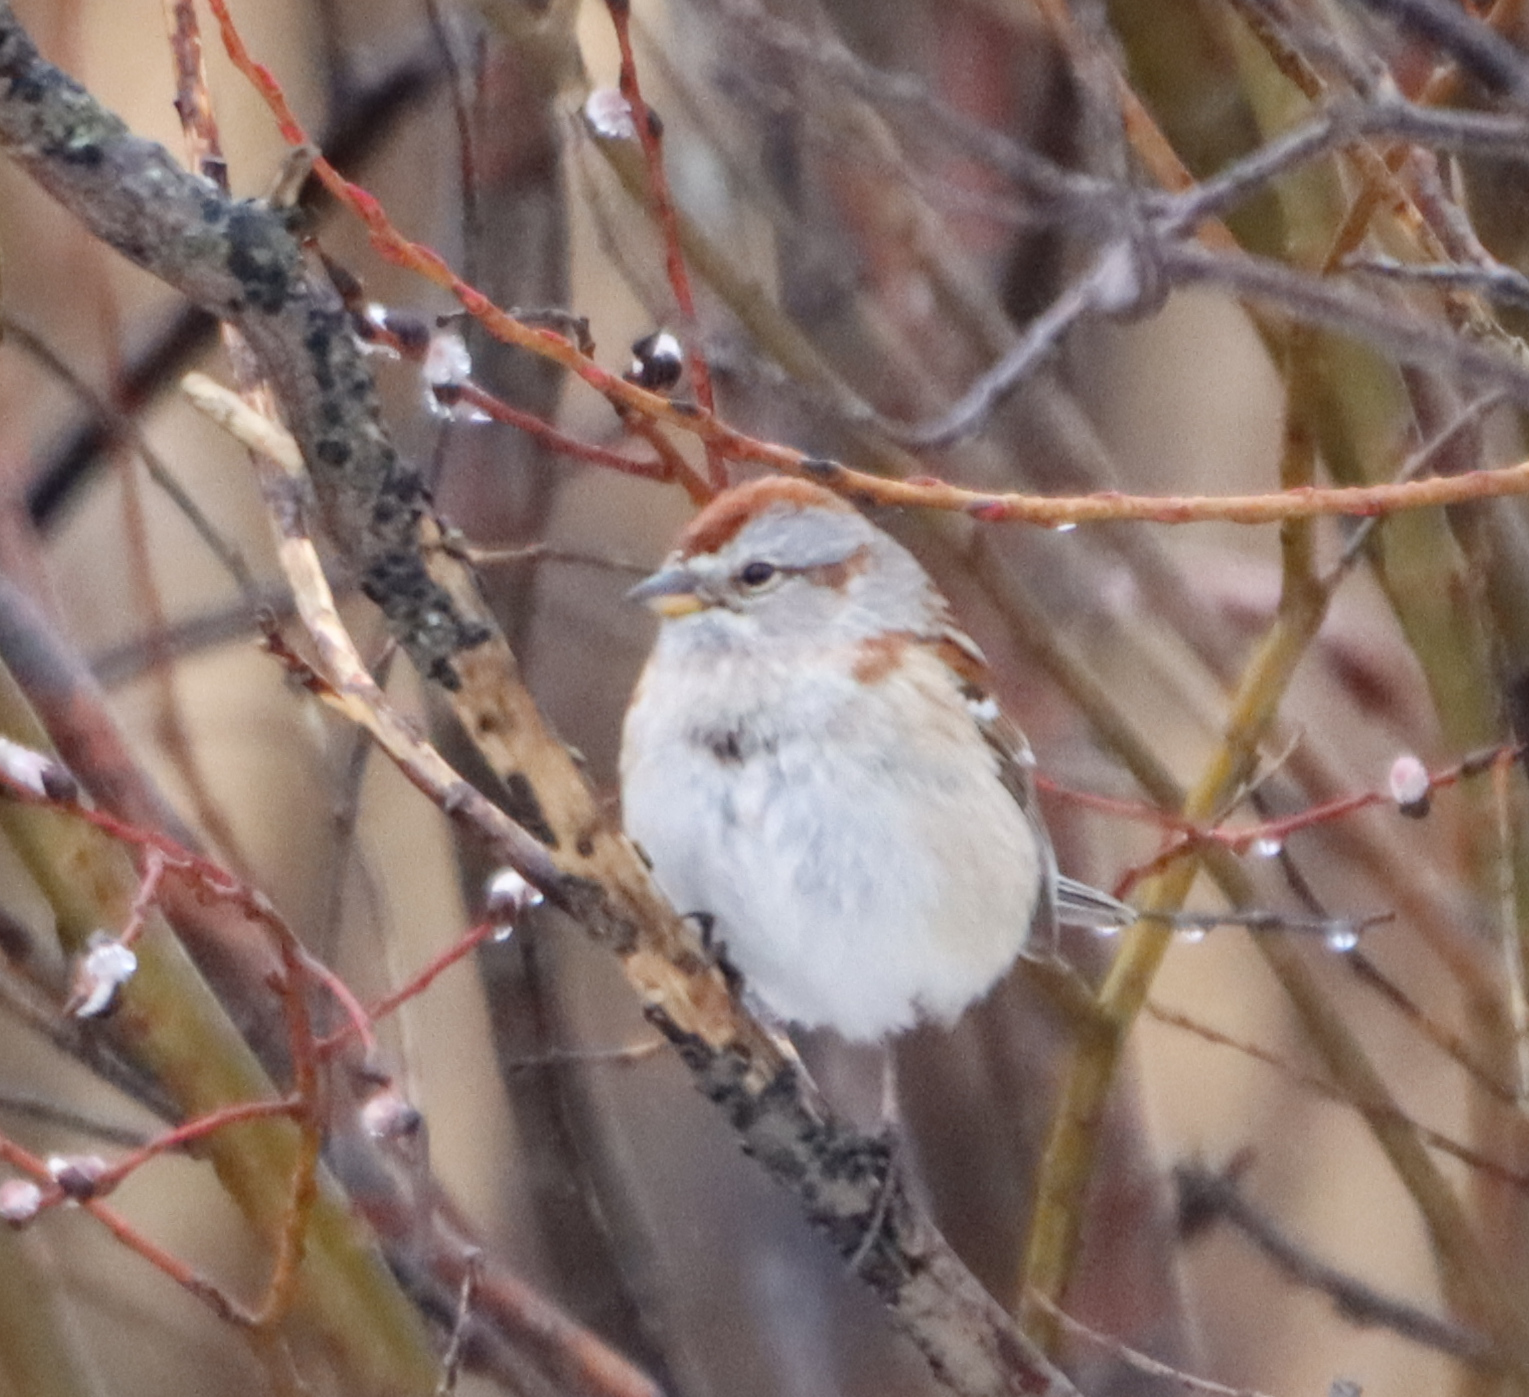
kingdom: Animalia
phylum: Chordata
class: Aves
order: Passeriformes
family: Passerellidae
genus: Spizelloides
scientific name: Spizelloides arborea
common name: American tree sparrow
